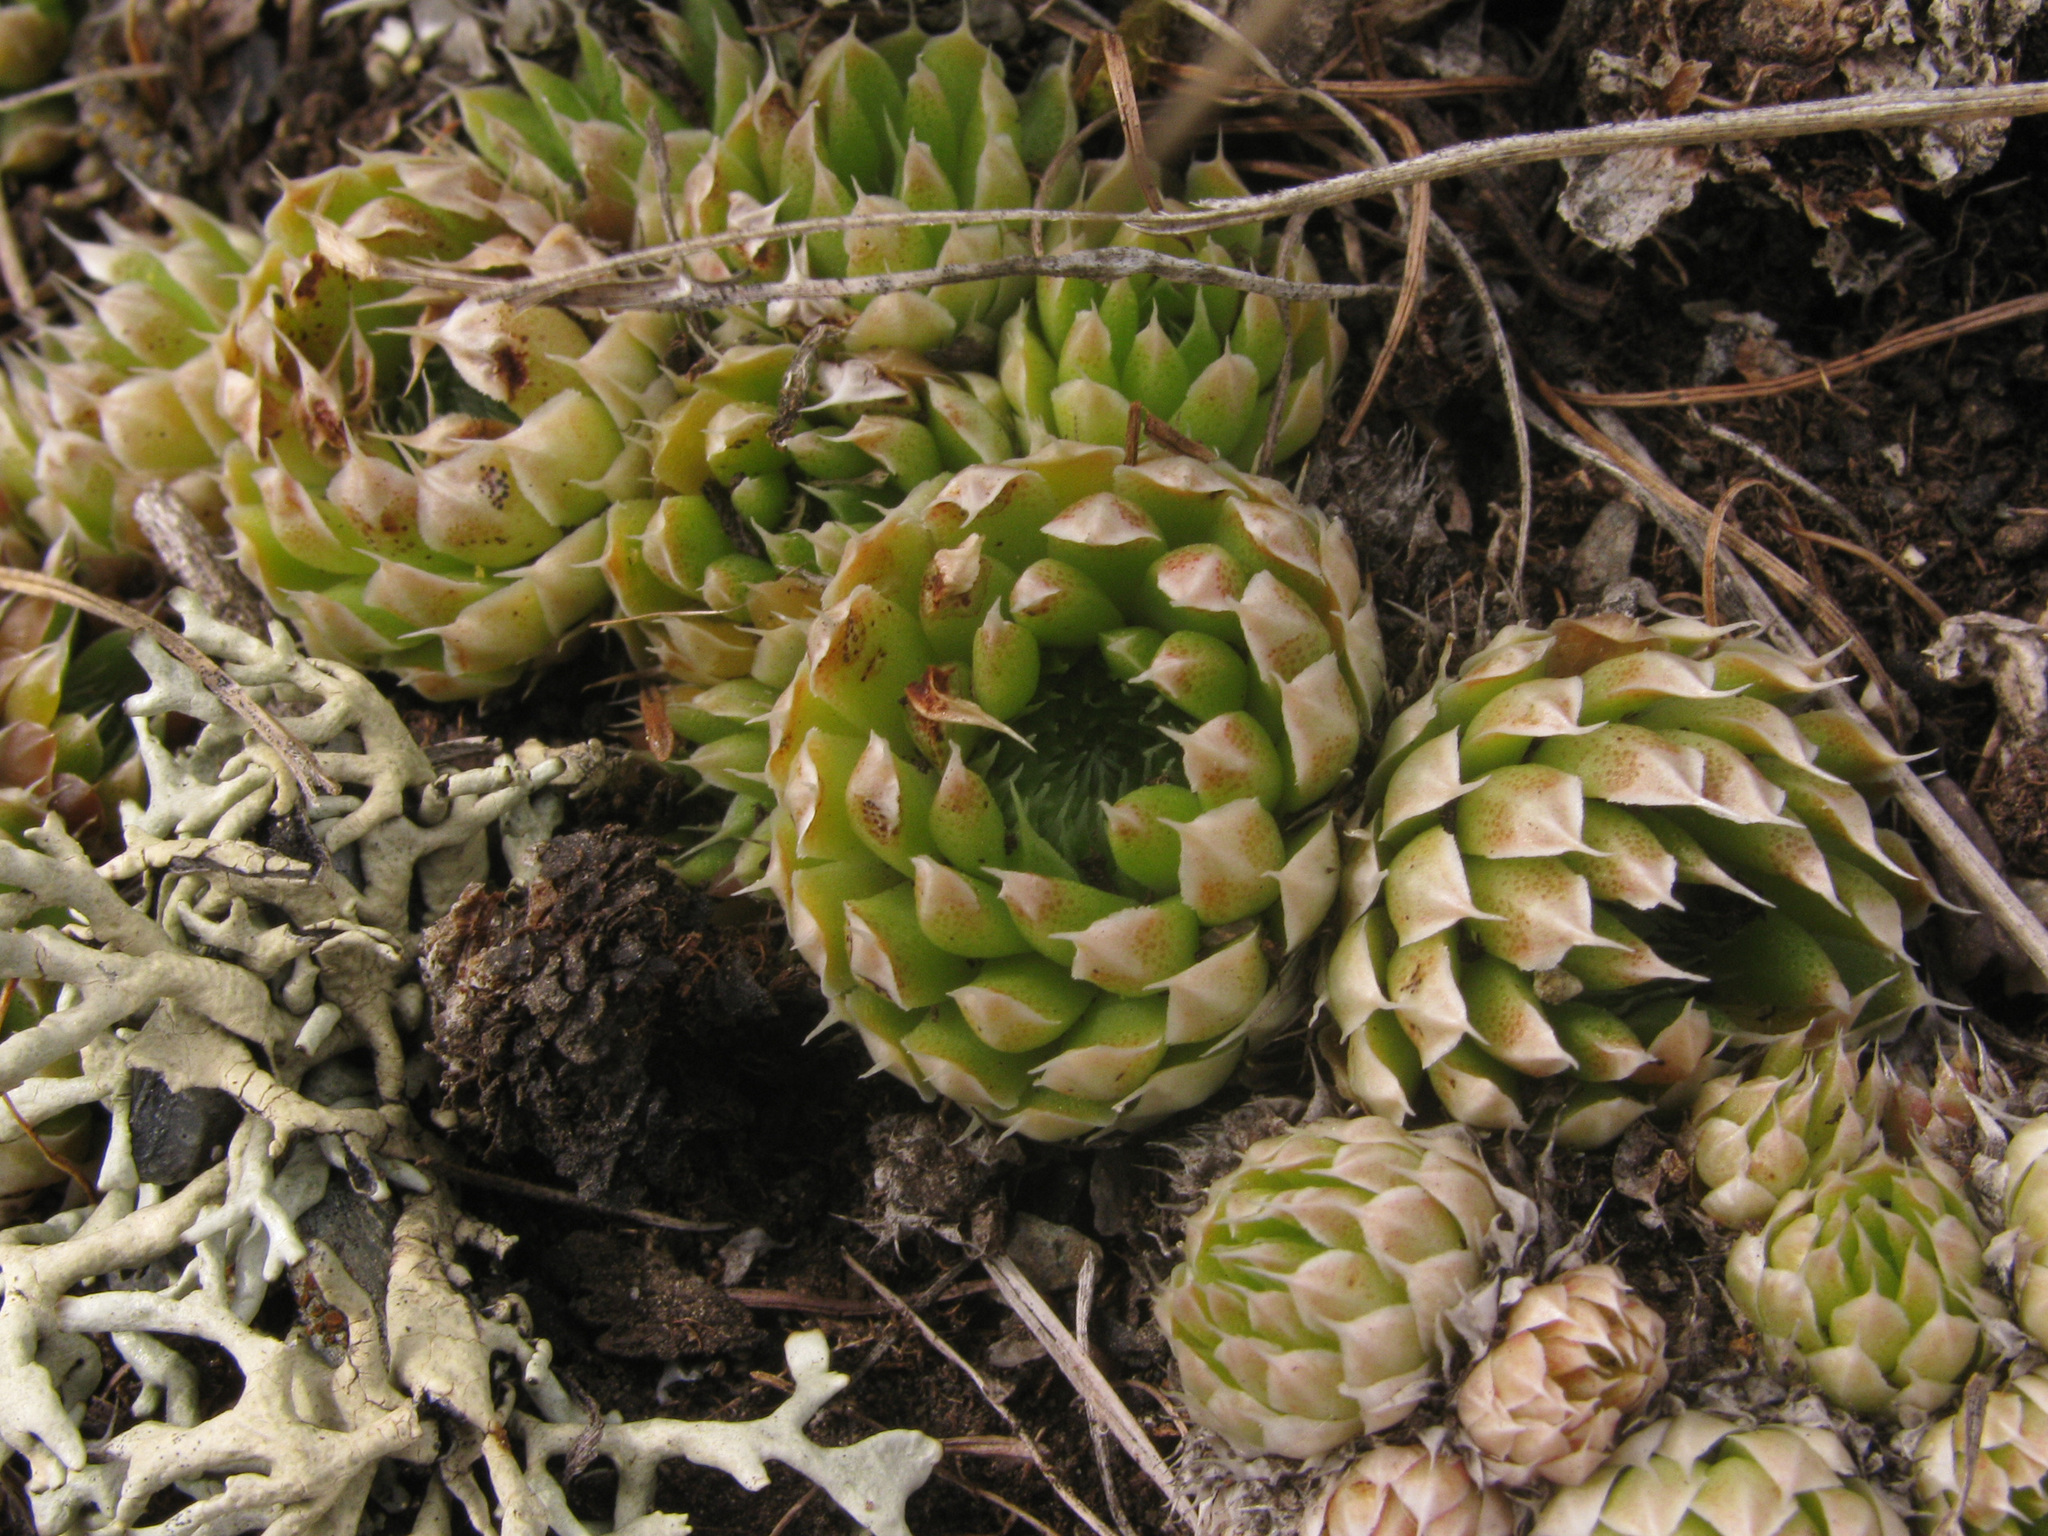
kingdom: Plantae
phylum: Tracheophyta
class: Magnoliopsida
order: Saxifragales
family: Crassulaceae
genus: Orostachys
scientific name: Orostachys spinosa
